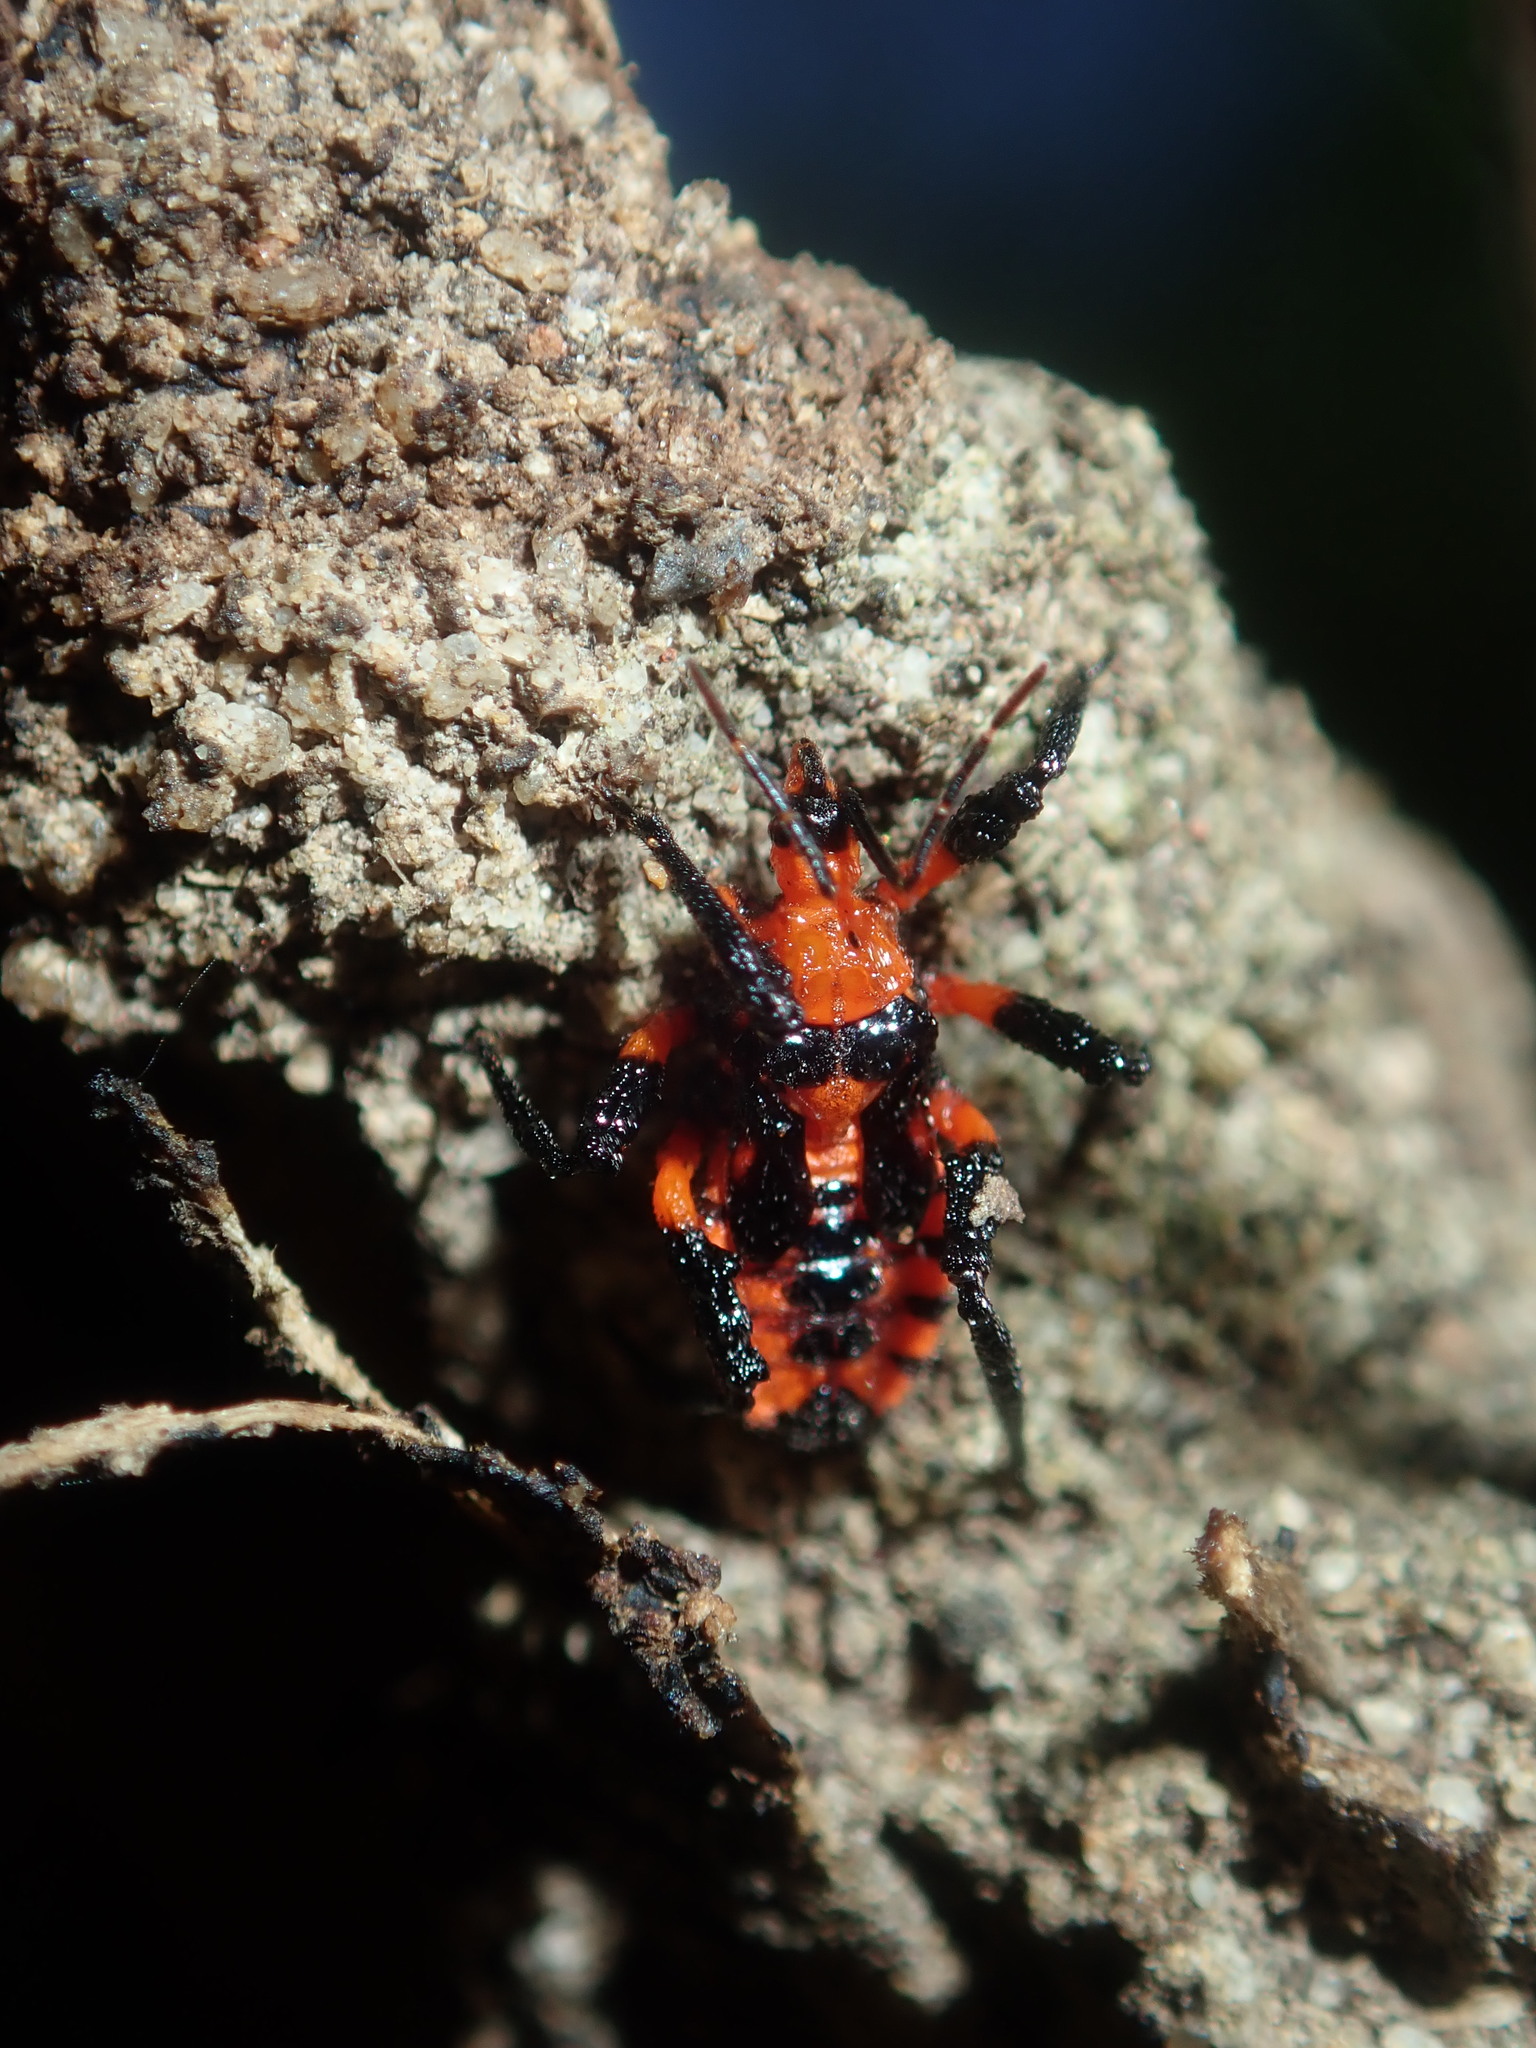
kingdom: Animalia
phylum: Arthropoda
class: Insecta
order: Hemiptera
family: Reduviidae
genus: Tegea
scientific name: Tegea atropicta
